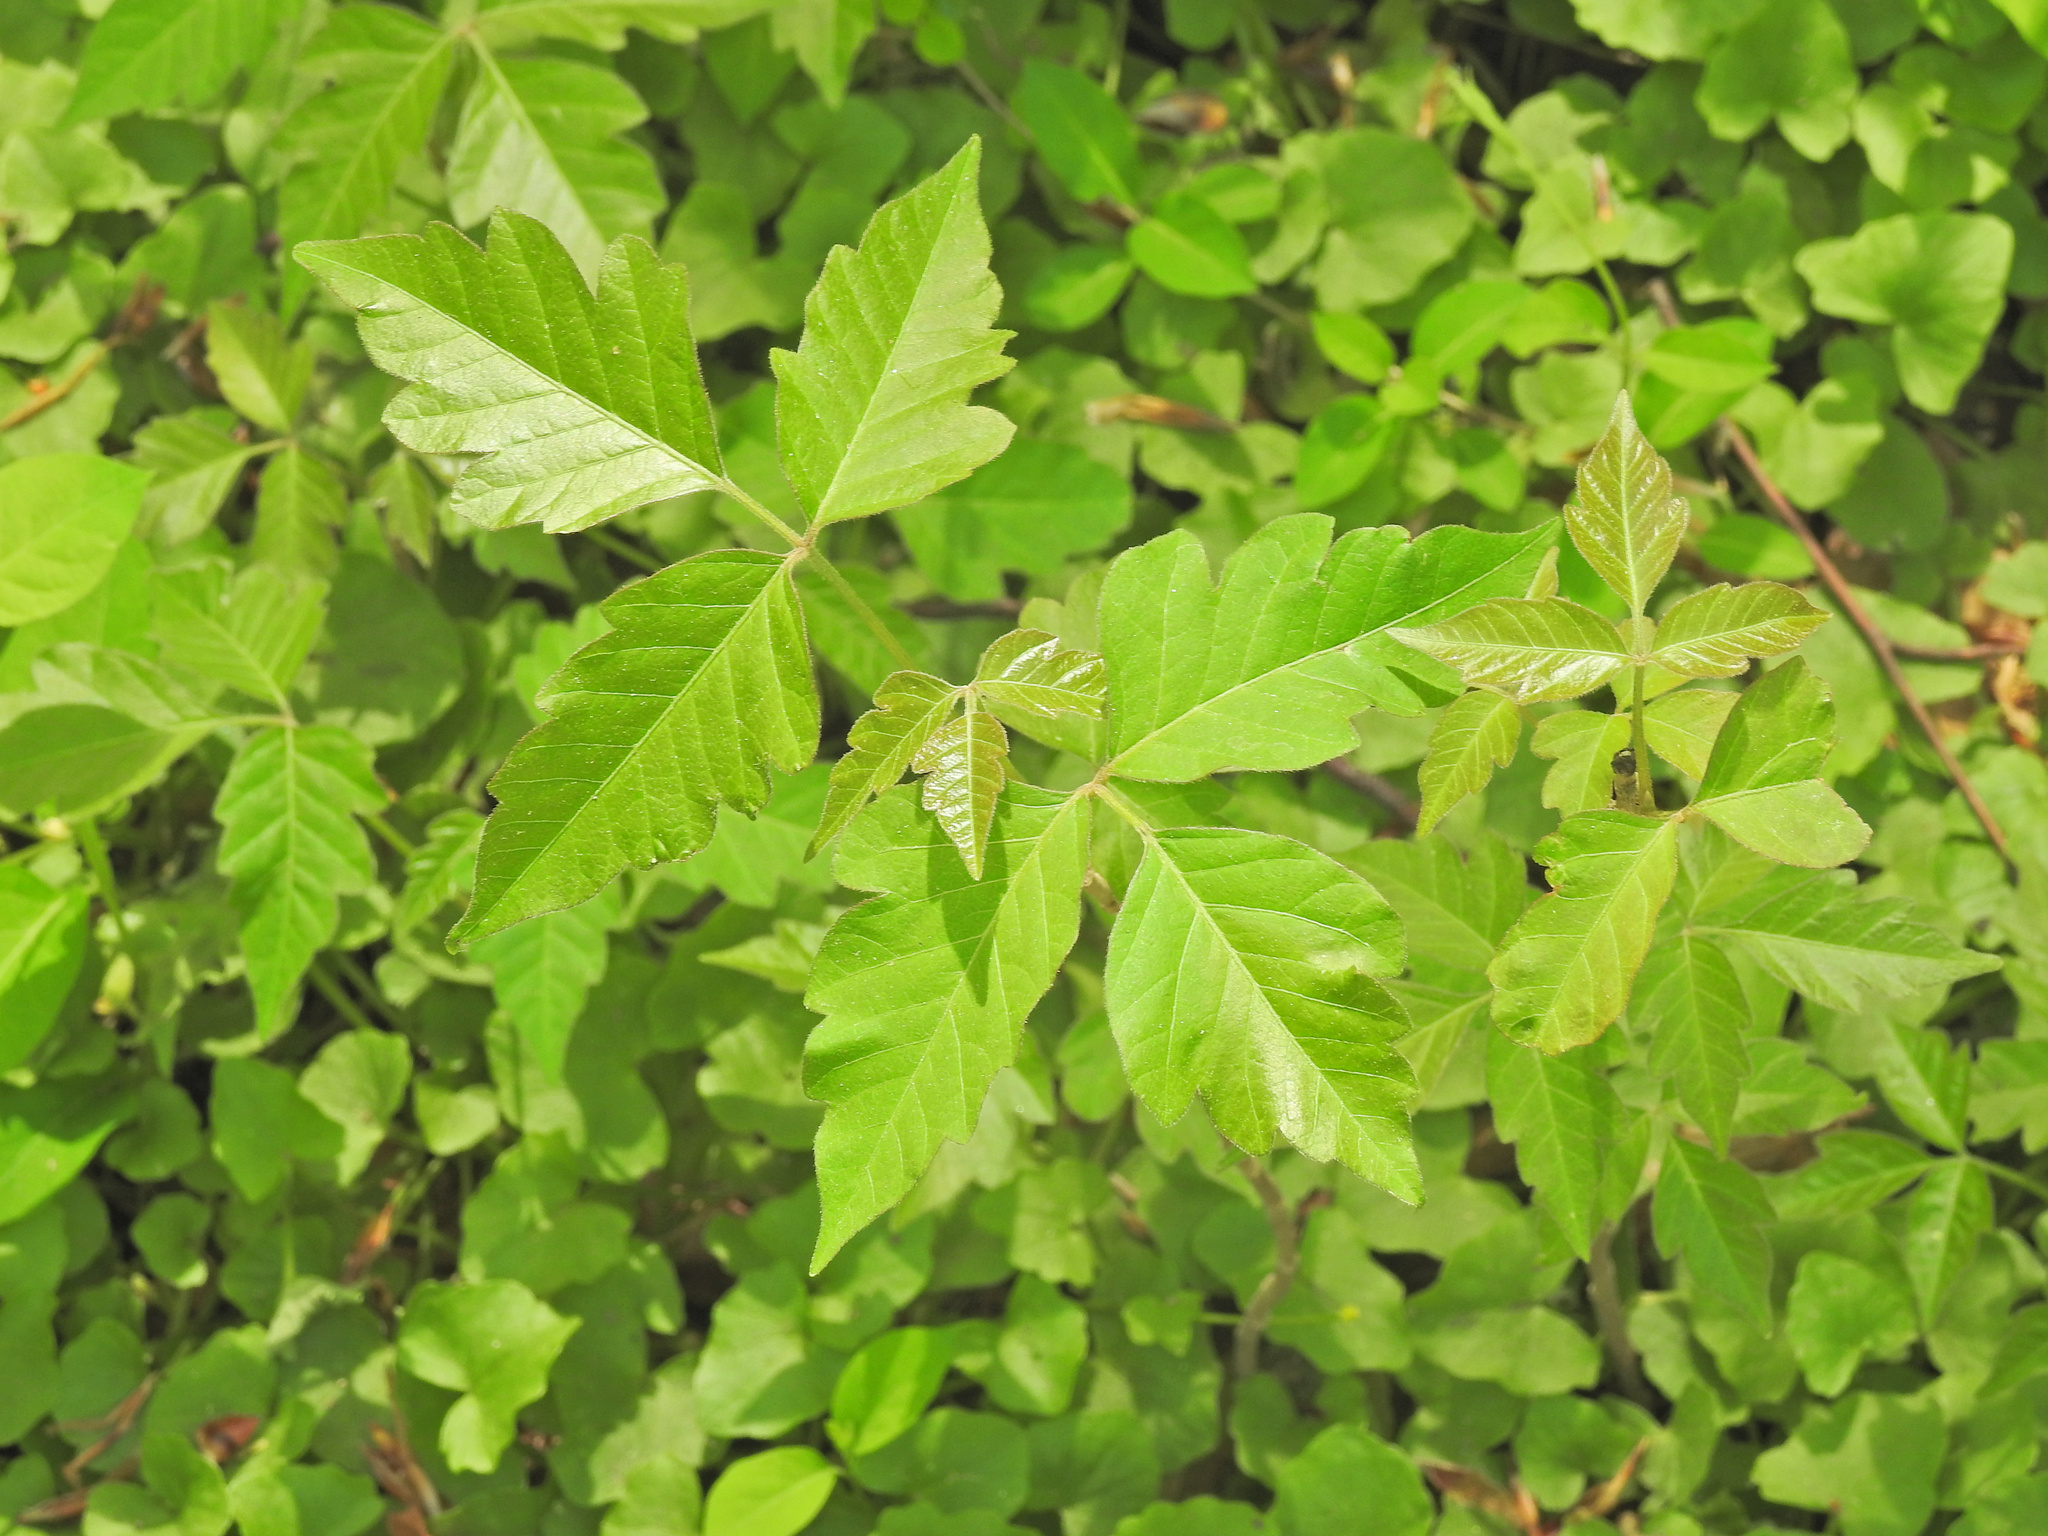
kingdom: Plantae
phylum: Tracheophyta
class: Magnoliopsida
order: Sapindales
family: Anacardiaceae
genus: Toxicodendron
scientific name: Toxicodendron radicans
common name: Poison ivy
